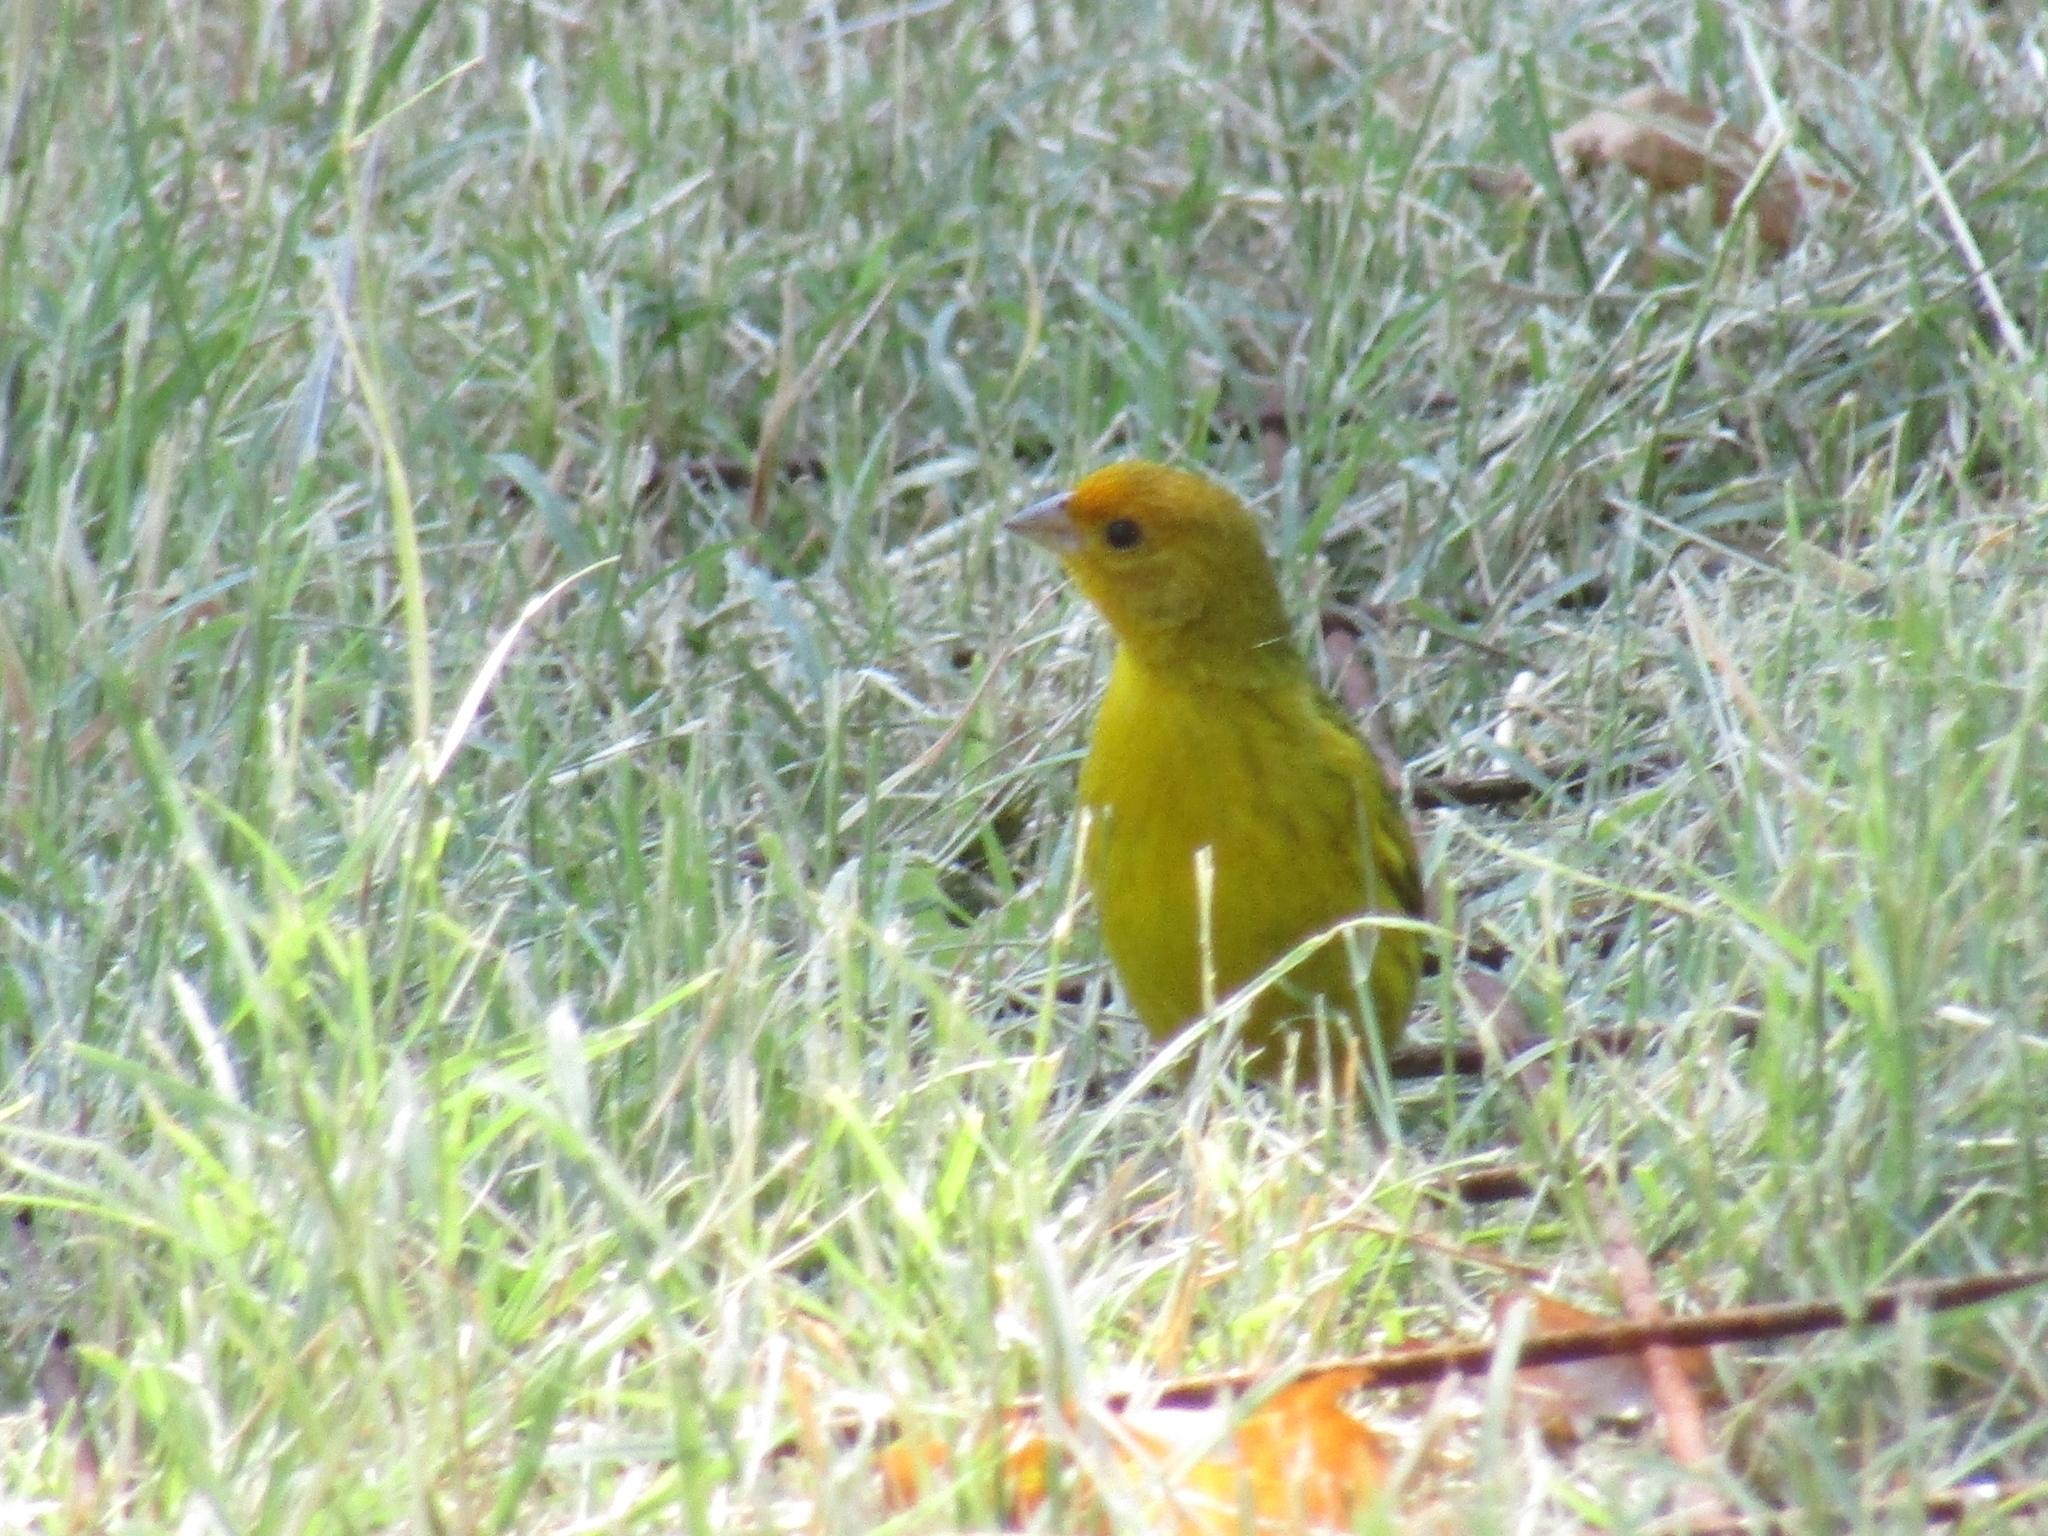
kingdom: Animalia
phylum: Chordata
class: Aves
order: Passeriformes
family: Thraupidae
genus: Sicalis
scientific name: Sicalis flaveola
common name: Saffron finch
